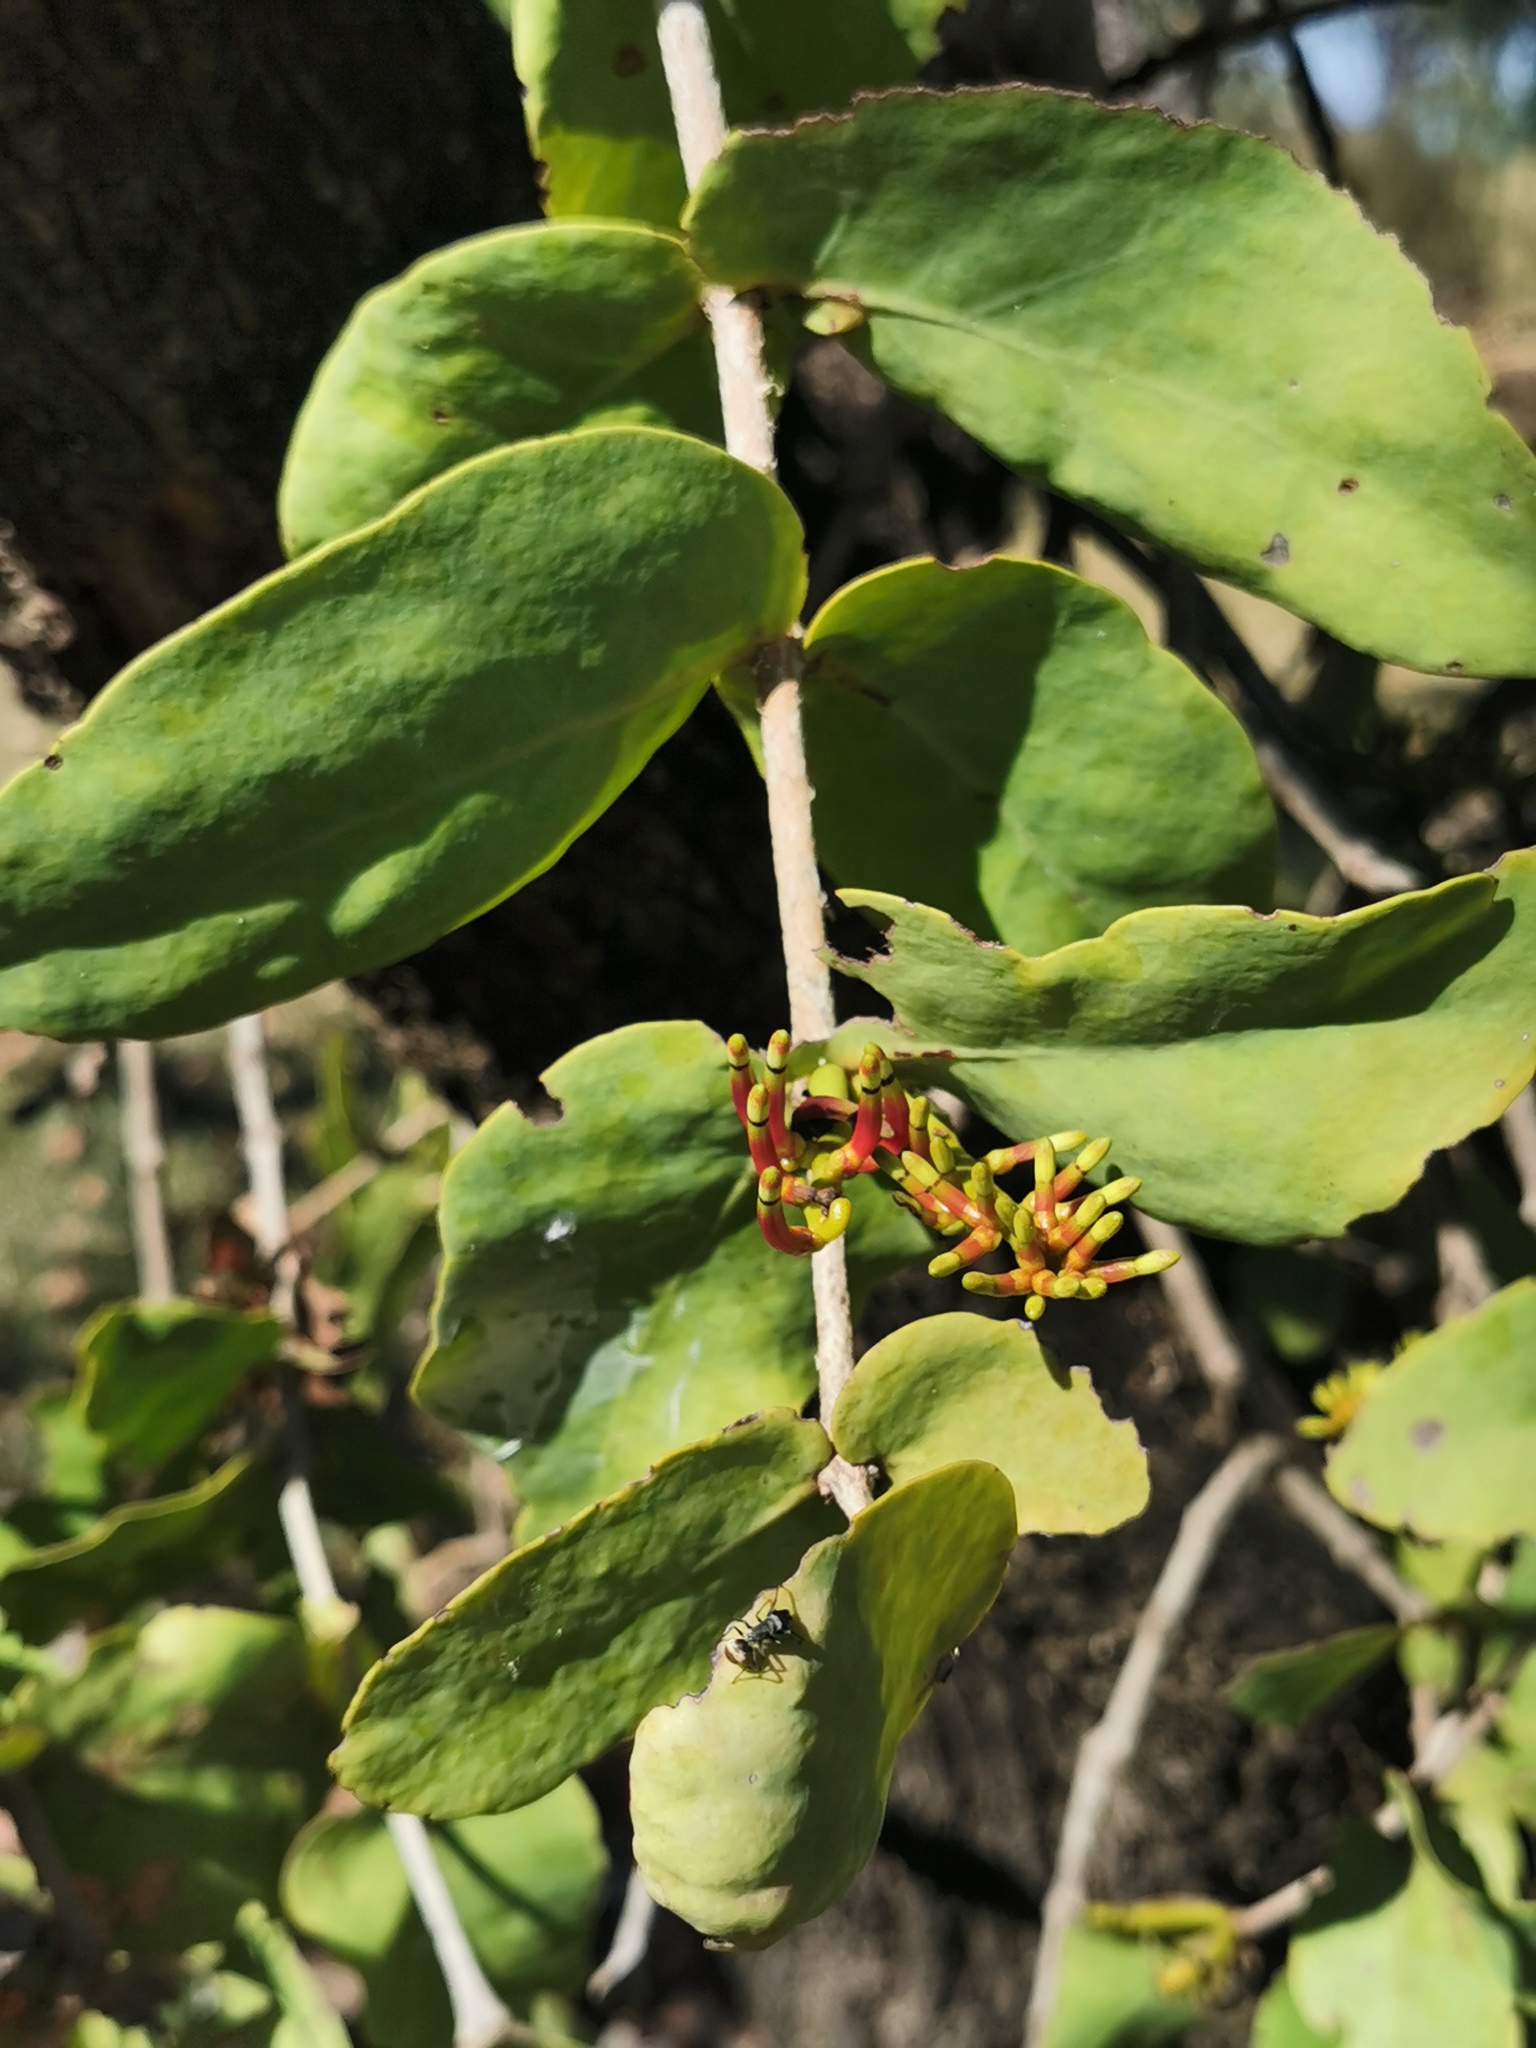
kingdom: Plantae
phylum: Tracheophyta
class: Magnoliopsida
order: Santalales
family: Loranthaceae
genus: Decaisnina
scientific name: Decaisnina signata
